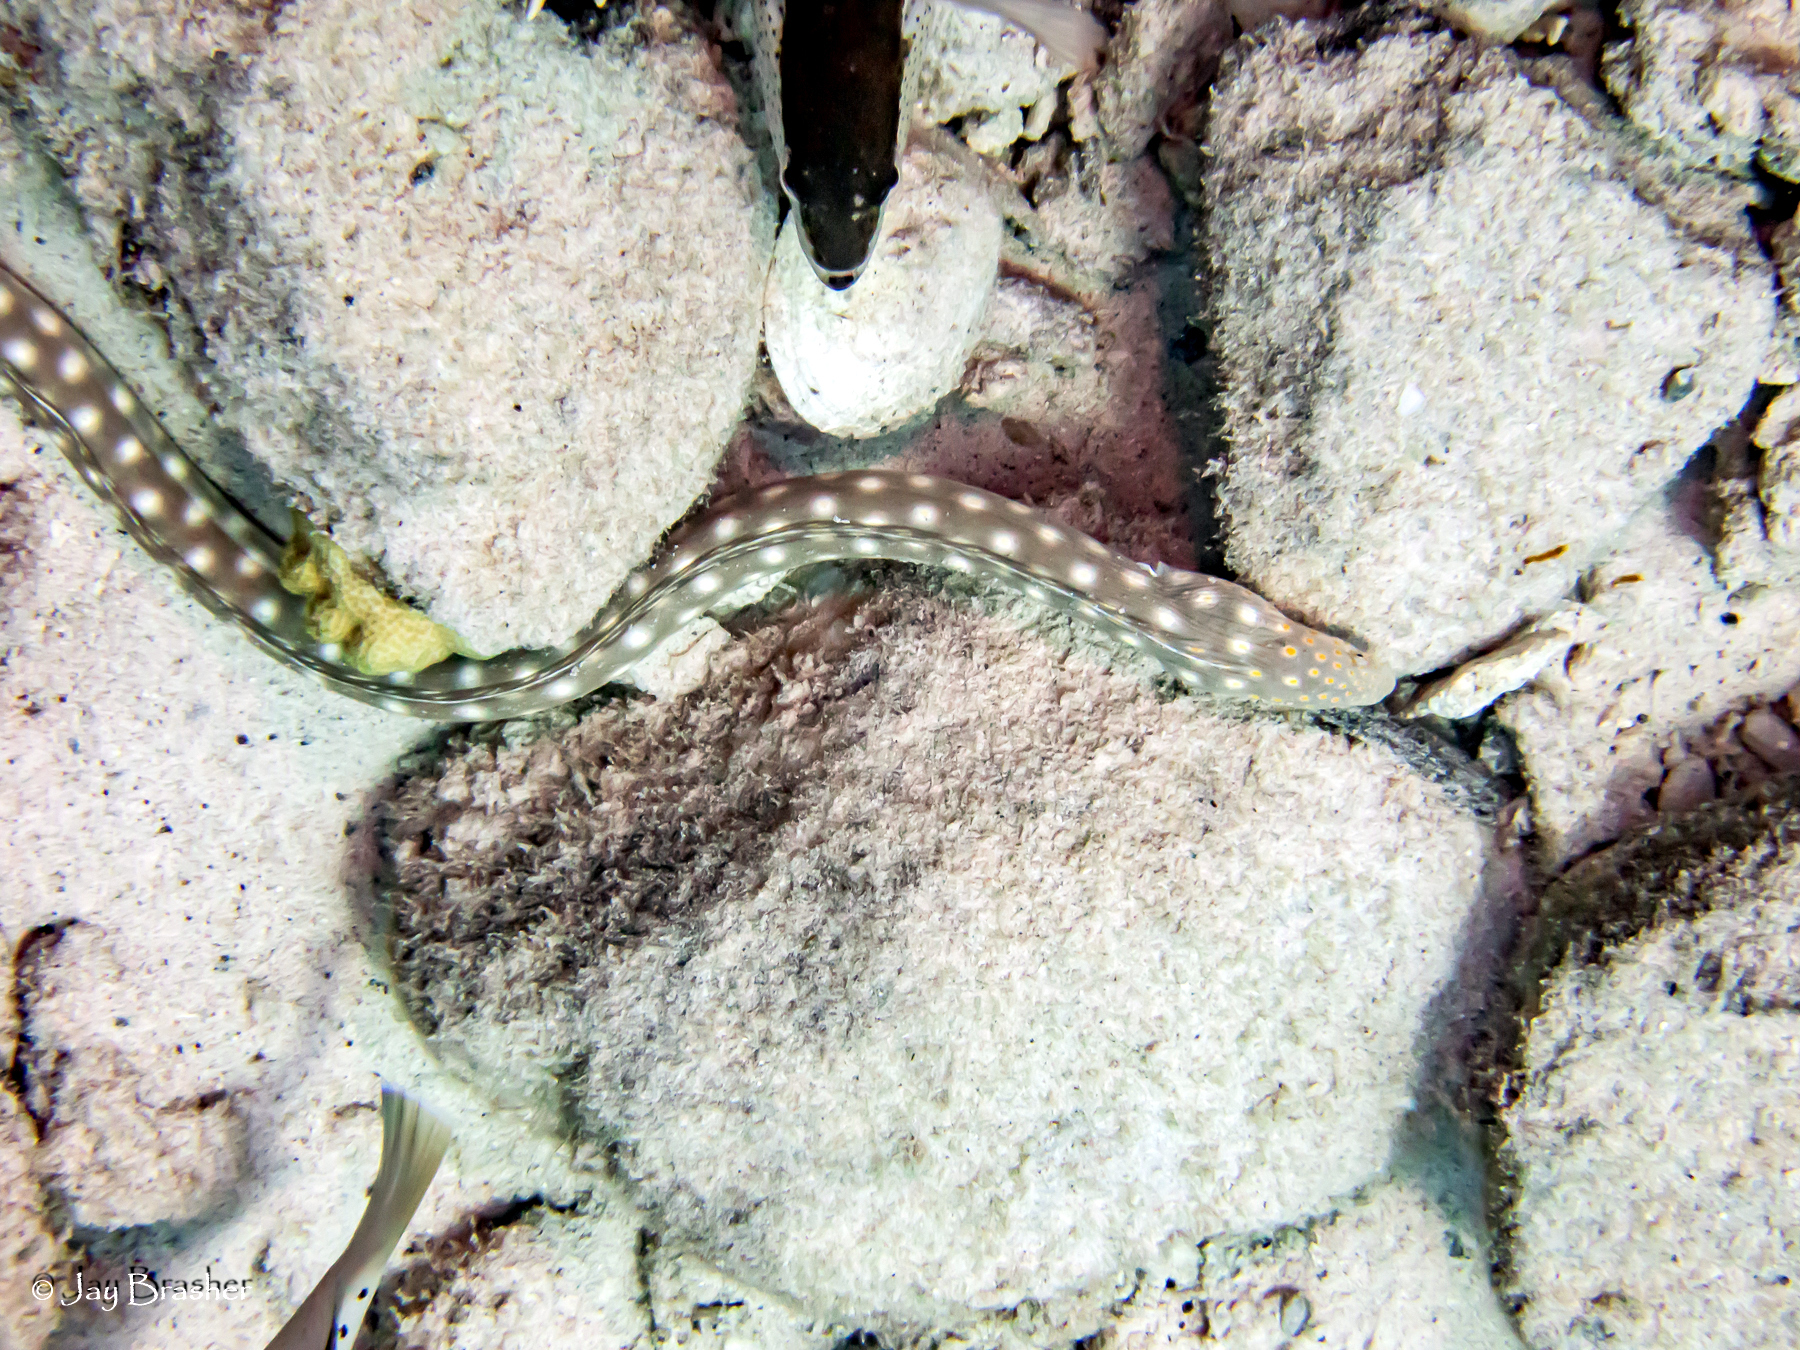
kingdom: Animalia
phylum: Chordata
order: Anguilliformes
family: Ophichthidae
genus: Myrichthys
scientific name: Myrichthys breviceps
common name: Sharptail eel
